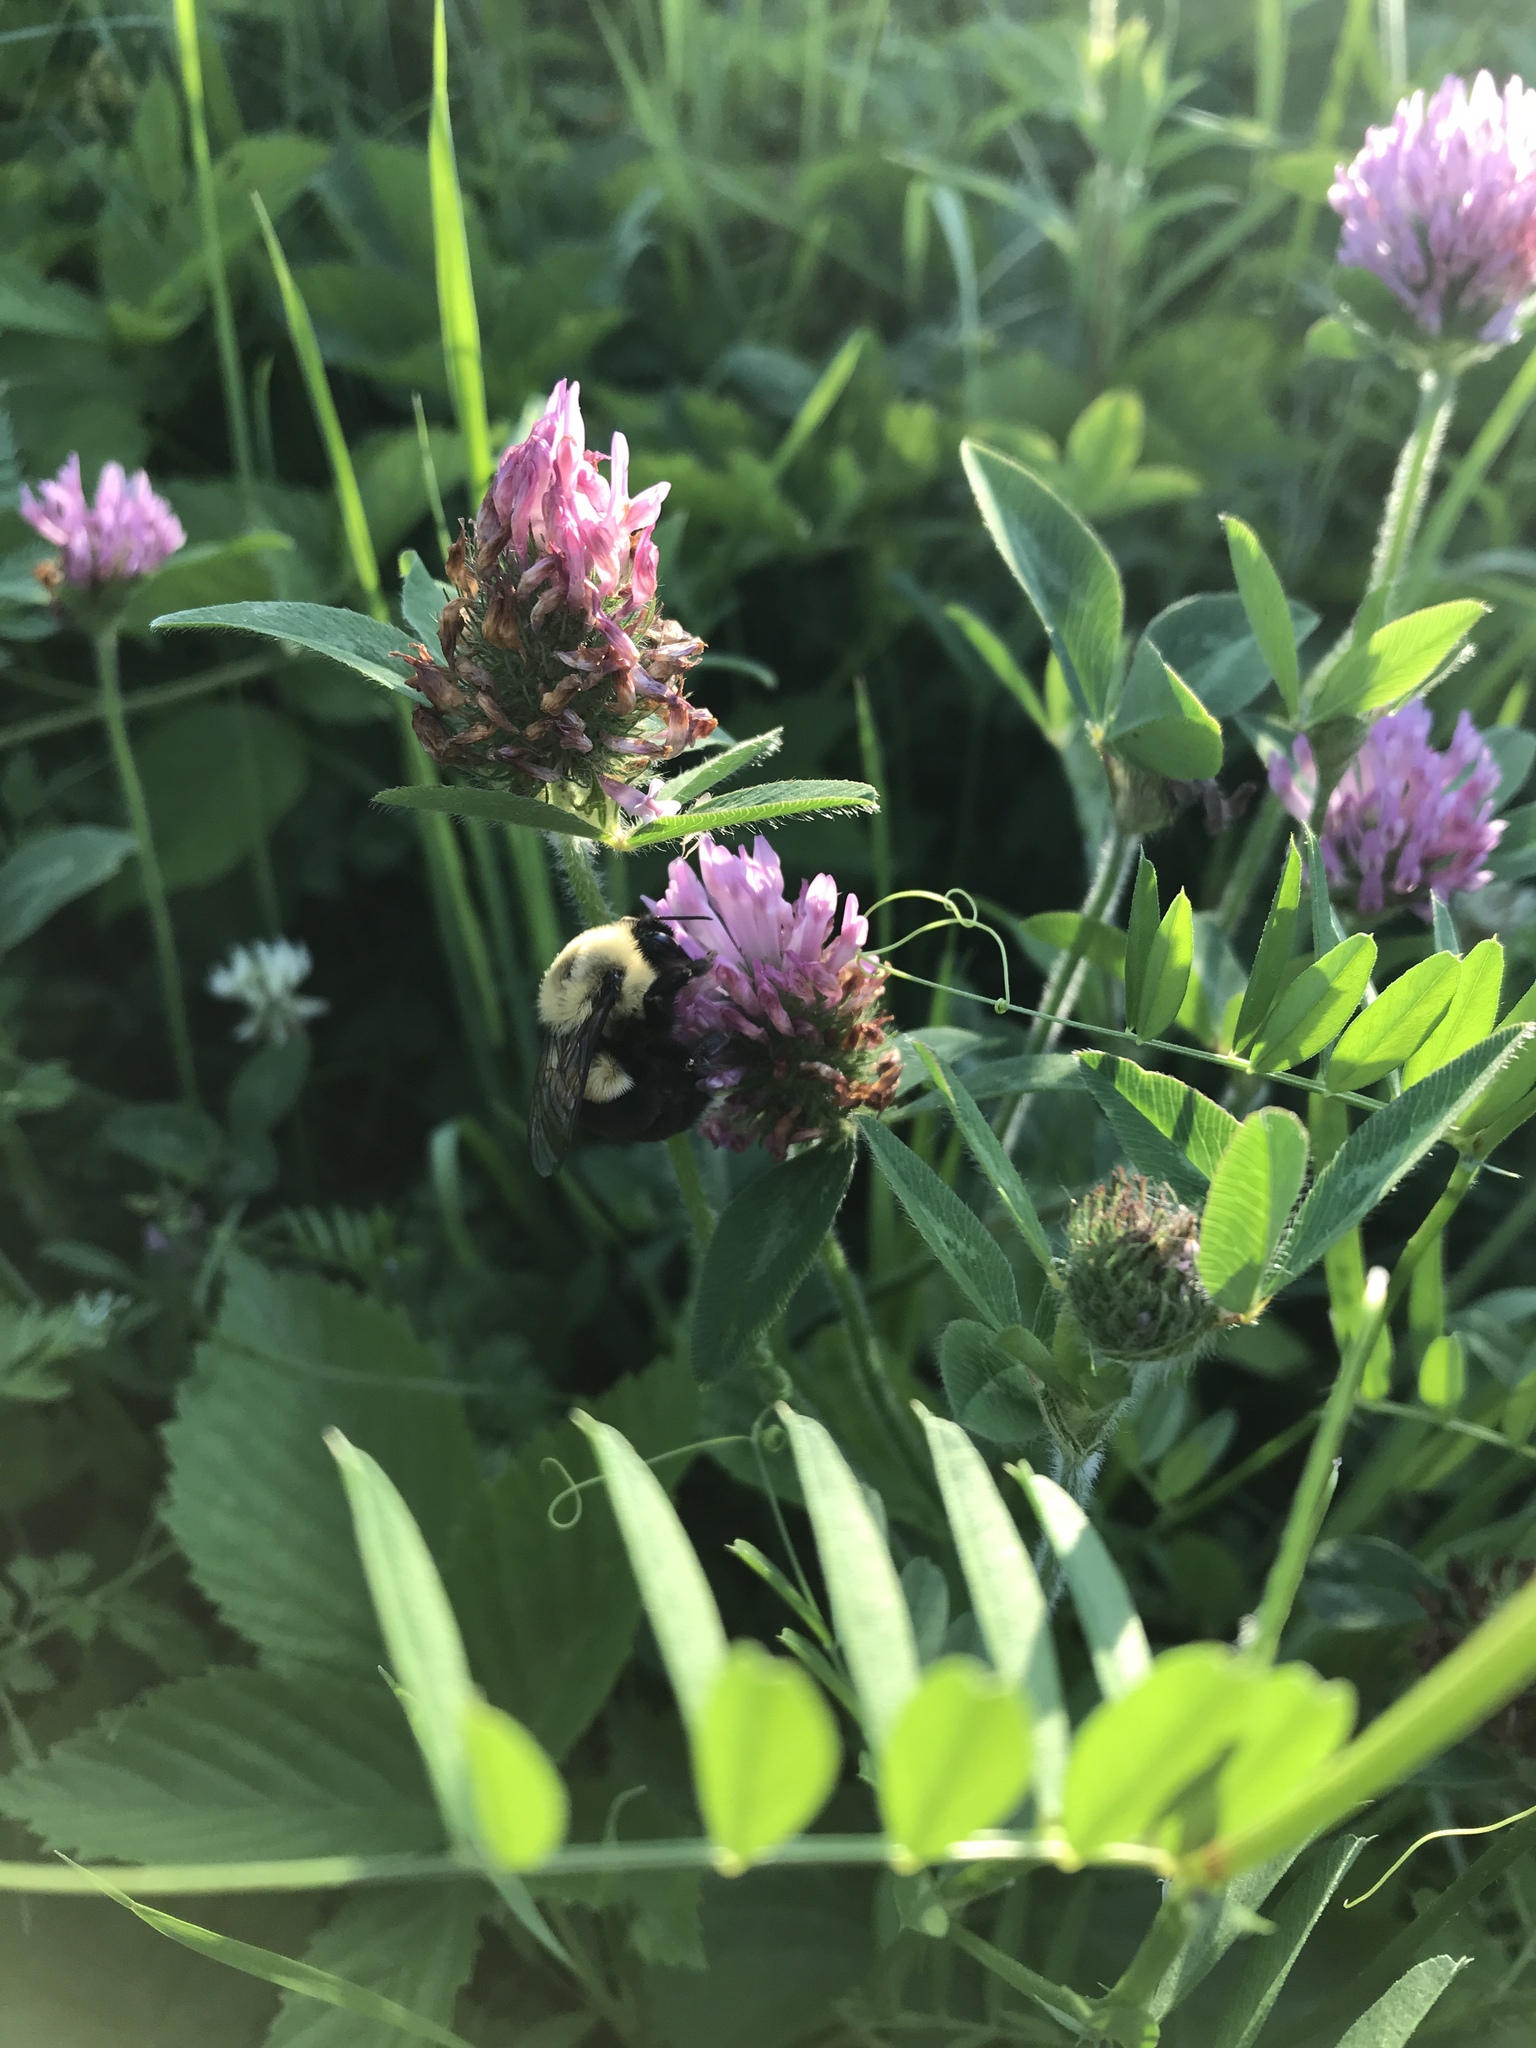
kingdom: Animalia
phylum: Arthropoda
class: Insecta
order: Hymenoptera
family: Apidae
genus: Bombus
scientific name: Bombus impatiens
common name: Common eastern bumble bee
